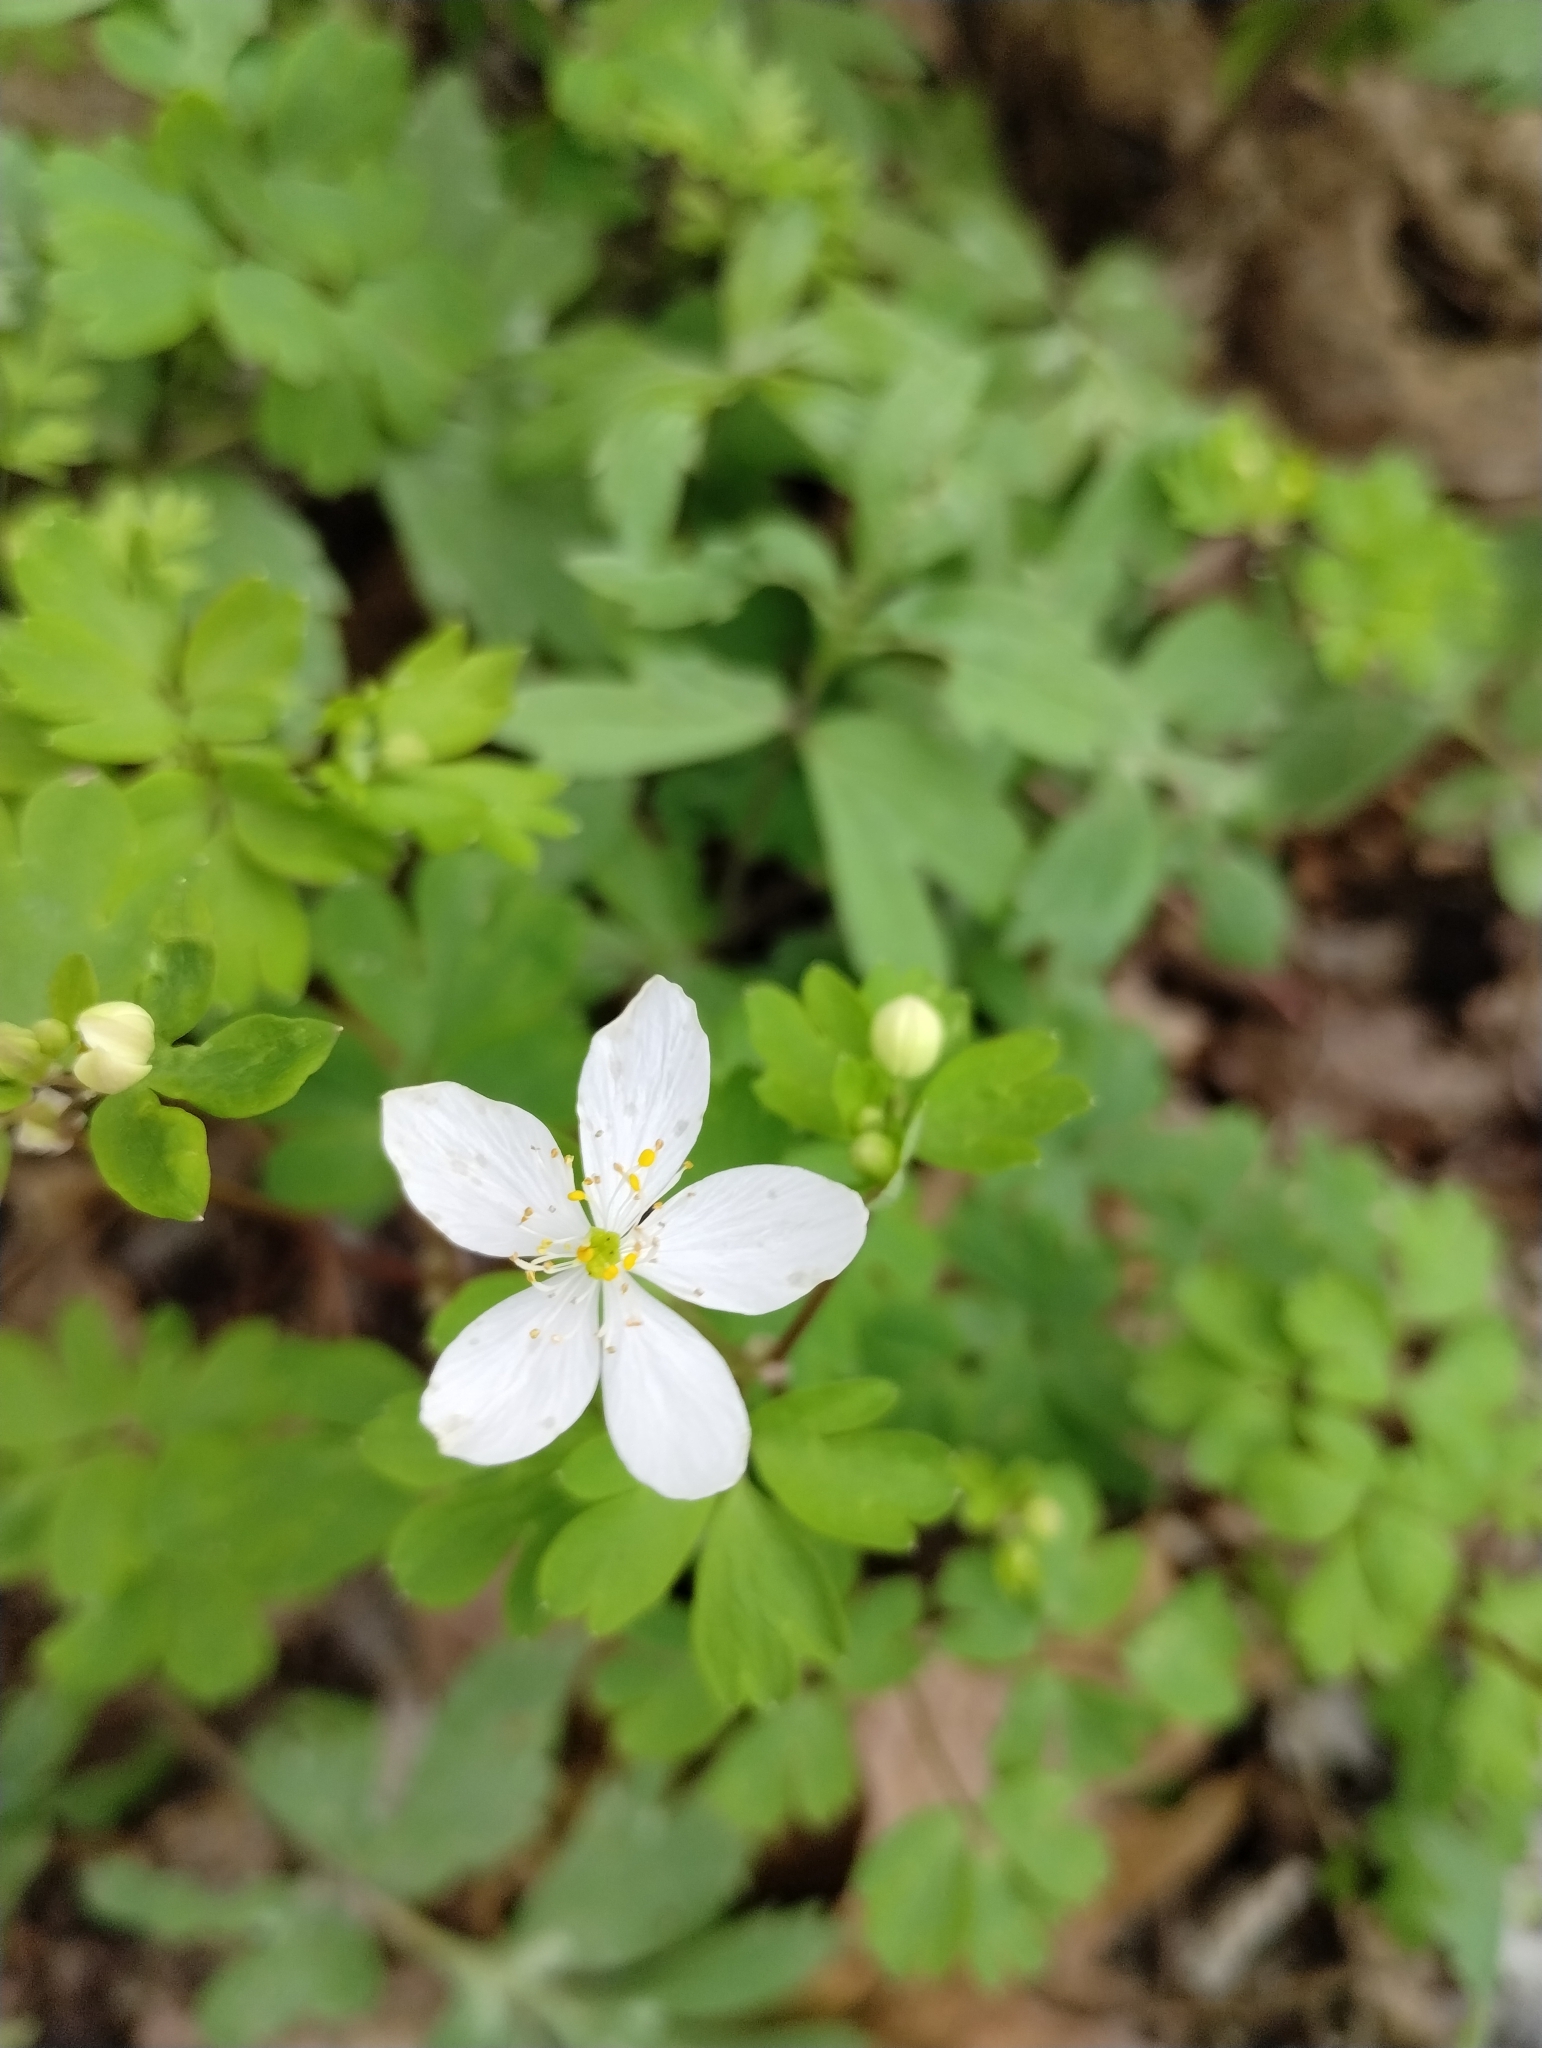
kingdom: Plantae
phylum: Tracheophyta
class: Magnoliopsida
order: Ranunculales
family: Ranunculaceae
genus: Enemion
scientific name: Enemion biternatum
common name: Eastern false rue-anemone
